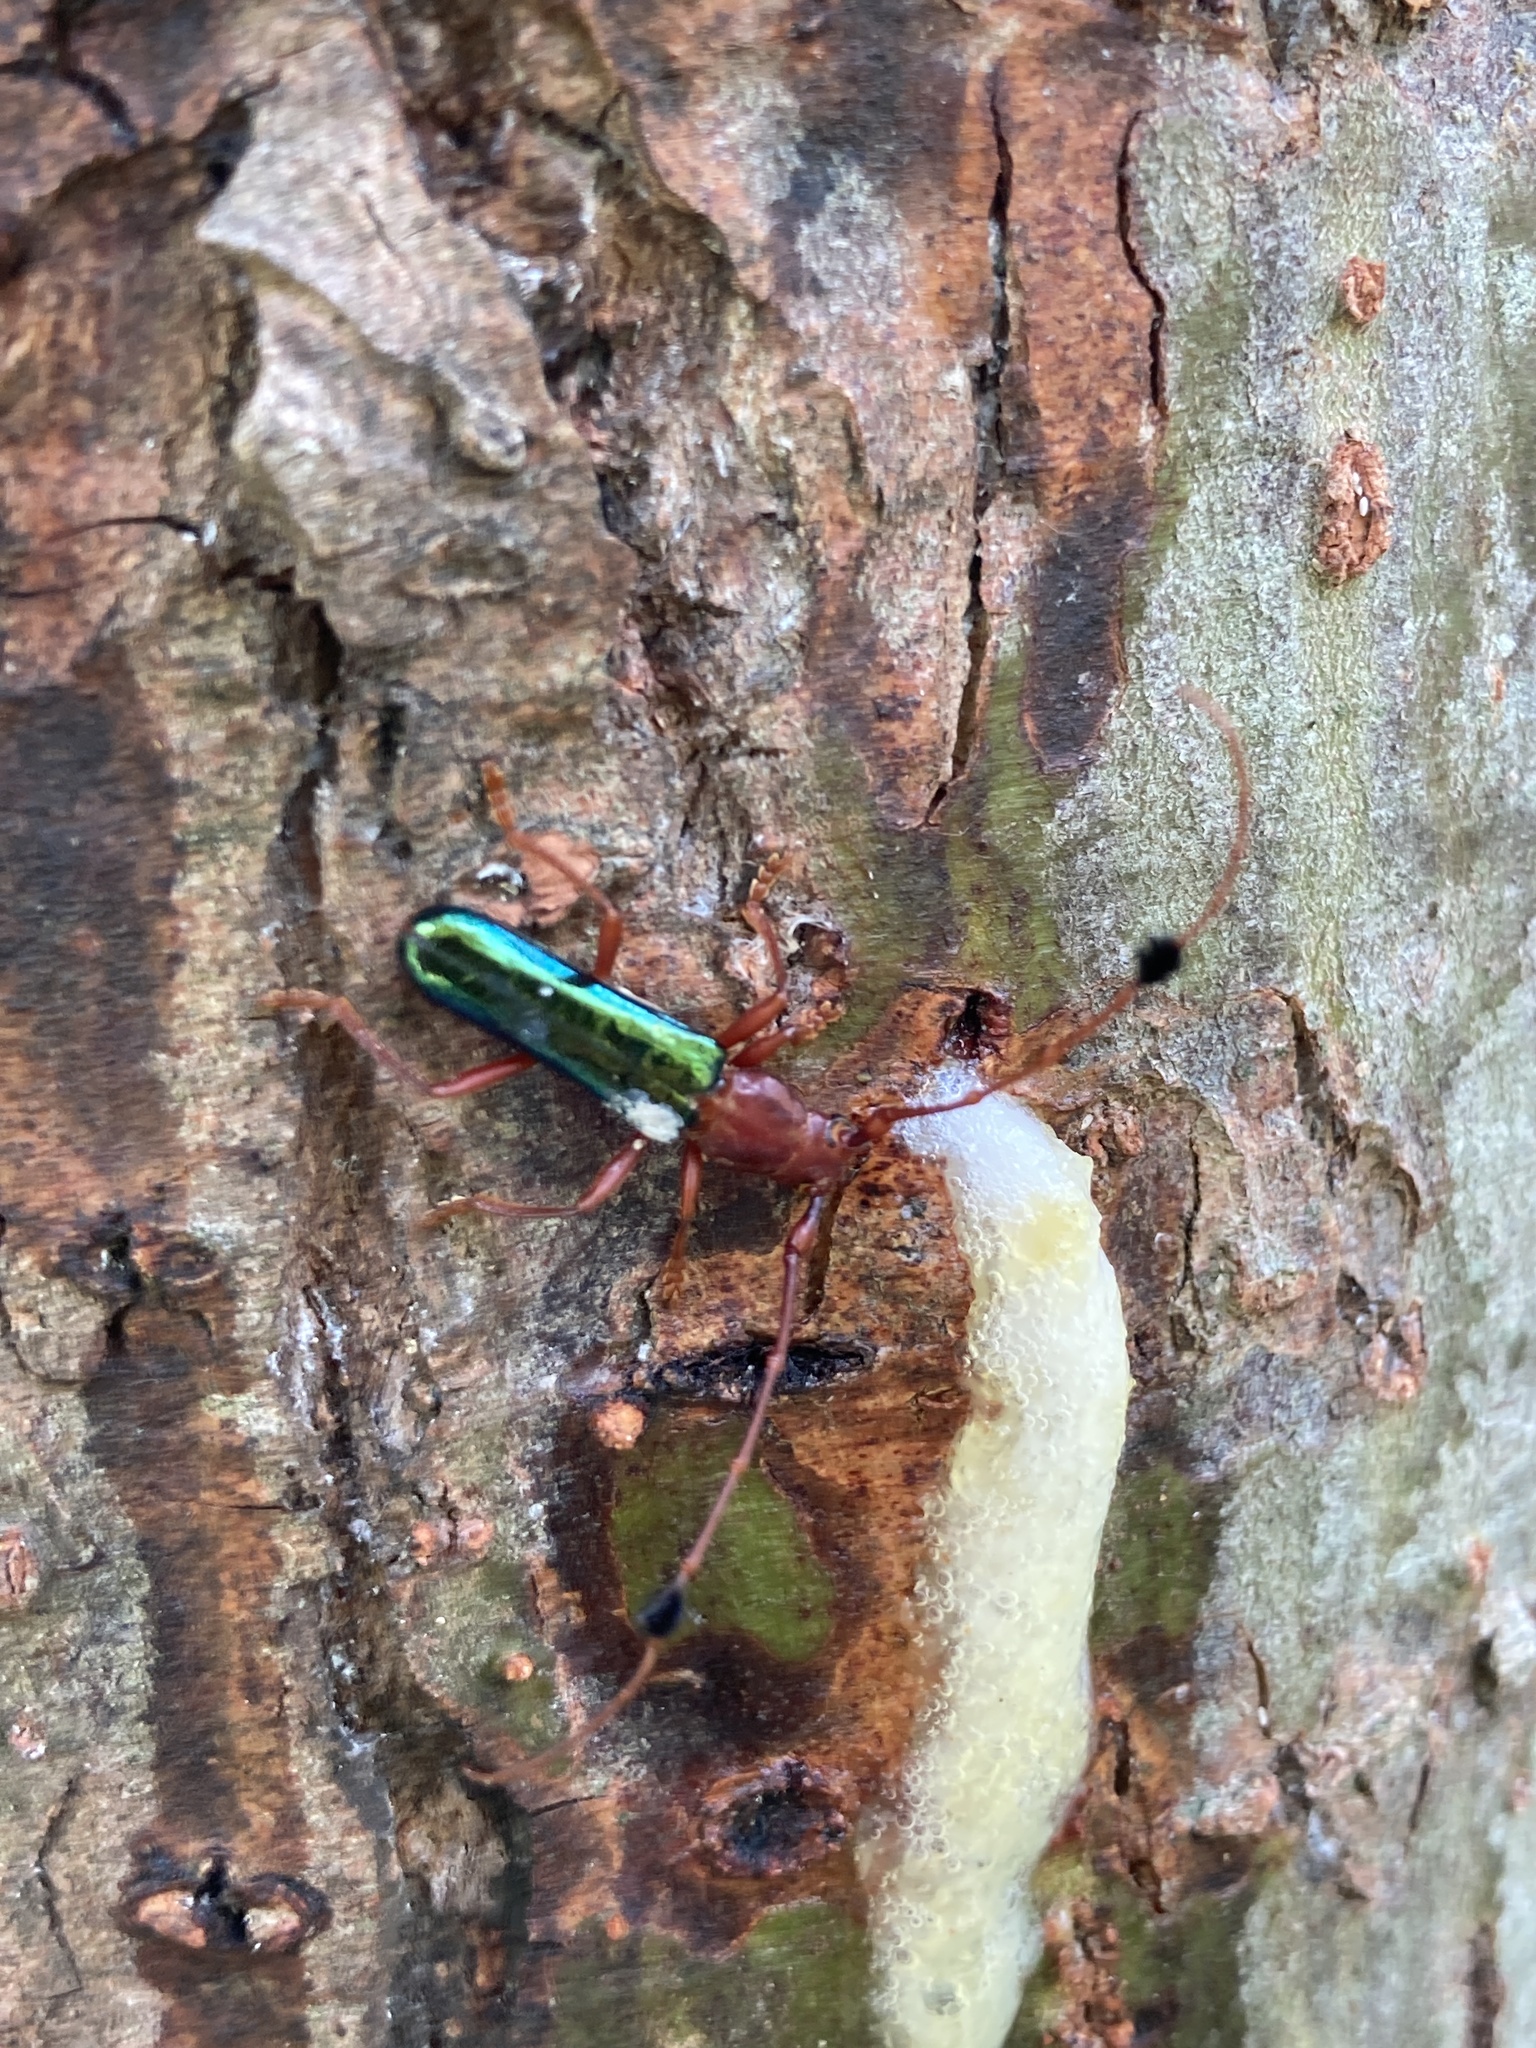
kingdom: Animalia
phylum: Arthropoda
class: Insecta
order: Coleoptera
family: Cerambycidae
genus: Compsocerus
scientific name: Compsocerus violaceus
